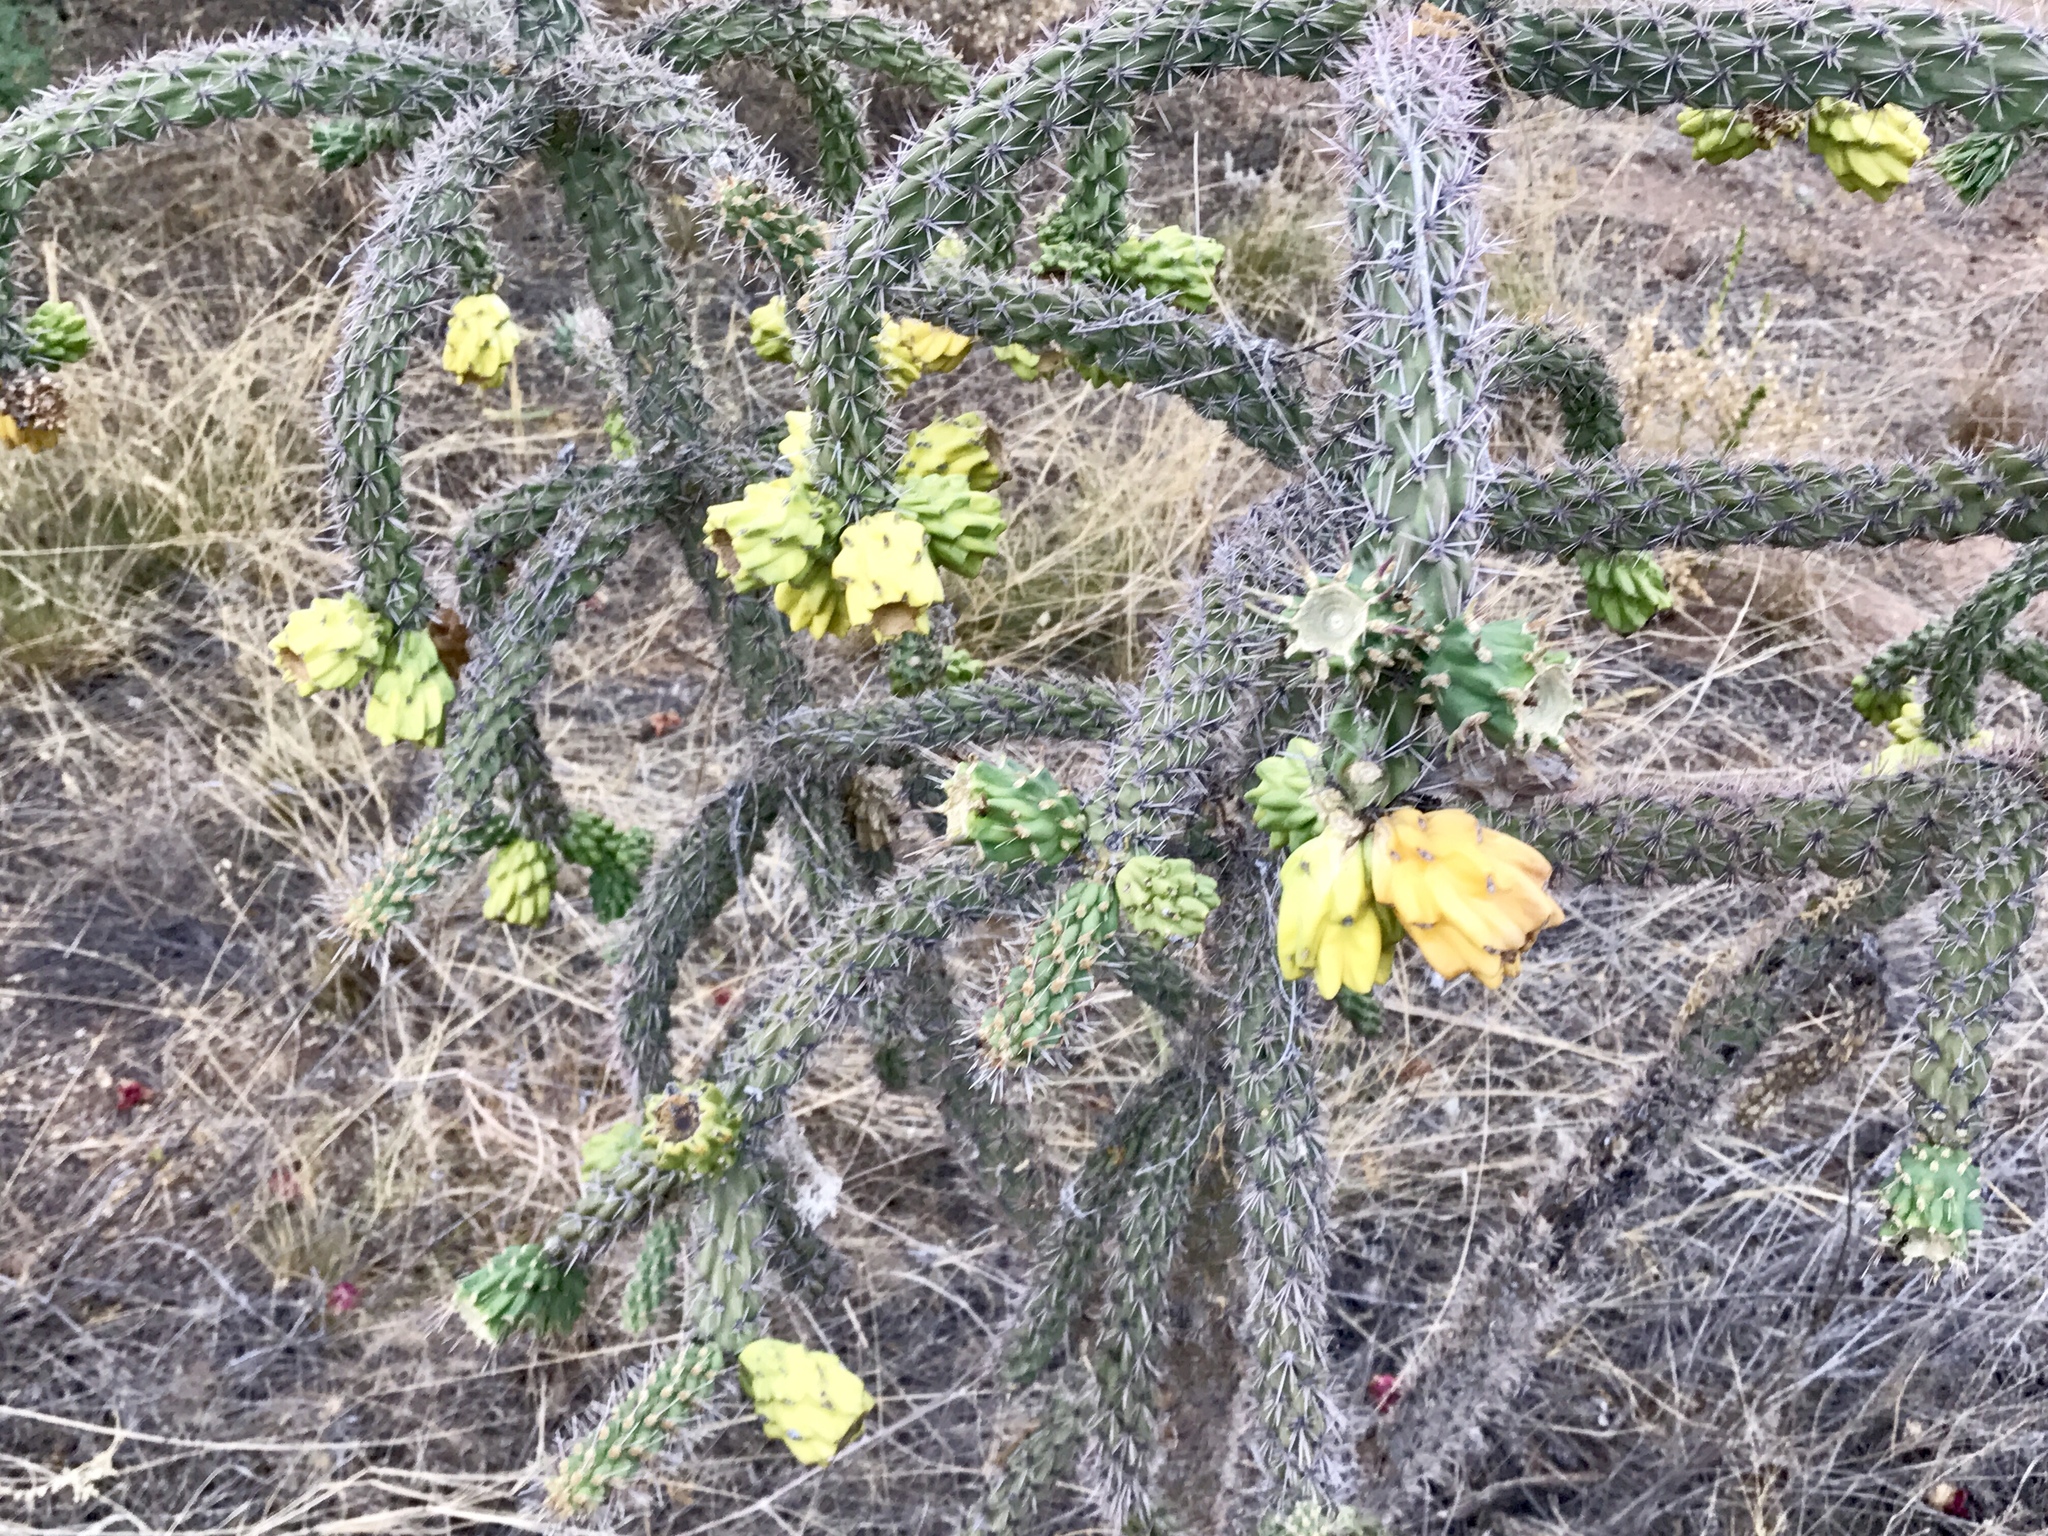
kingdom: Plantae
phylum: Tracheophyta
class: Magnoliopsida
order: Caryophyllales
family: Cactaceae
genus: Cylindropuntia
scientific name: Cylindropuntia imbricata
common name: Candelabrum cactus
